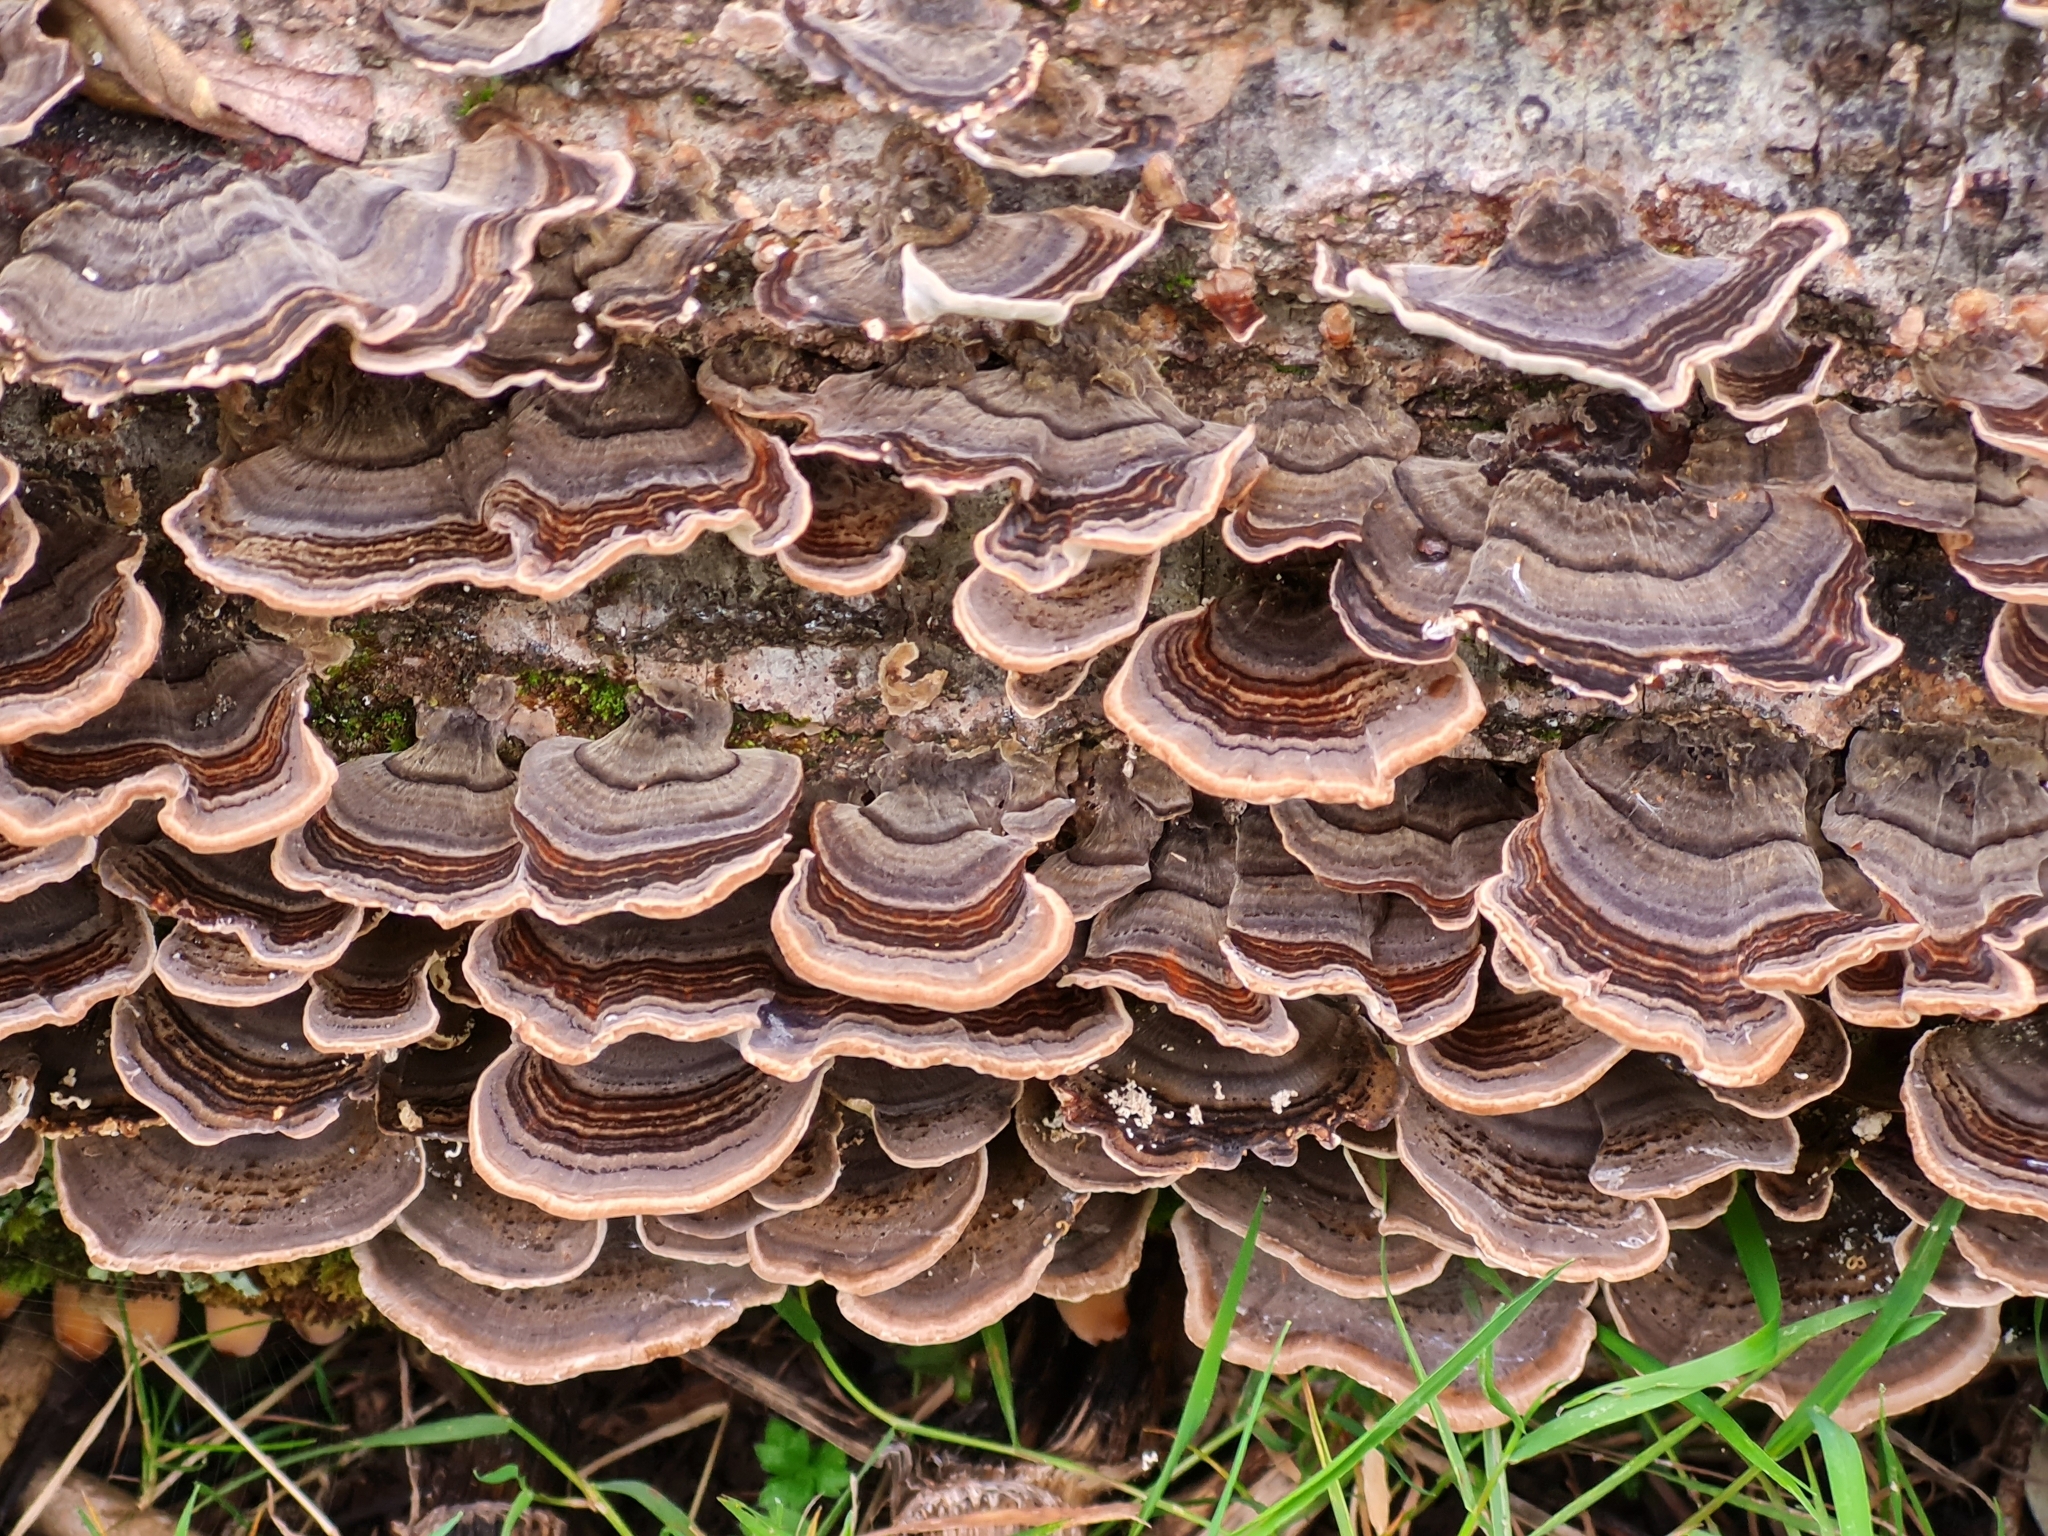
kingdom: Fungi
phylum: Basidiomycota
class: Agaricomycetes
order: Polyporales
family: Polyporaceae
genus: Trametes
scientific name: Trametes versicolor
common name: Turkeytail
